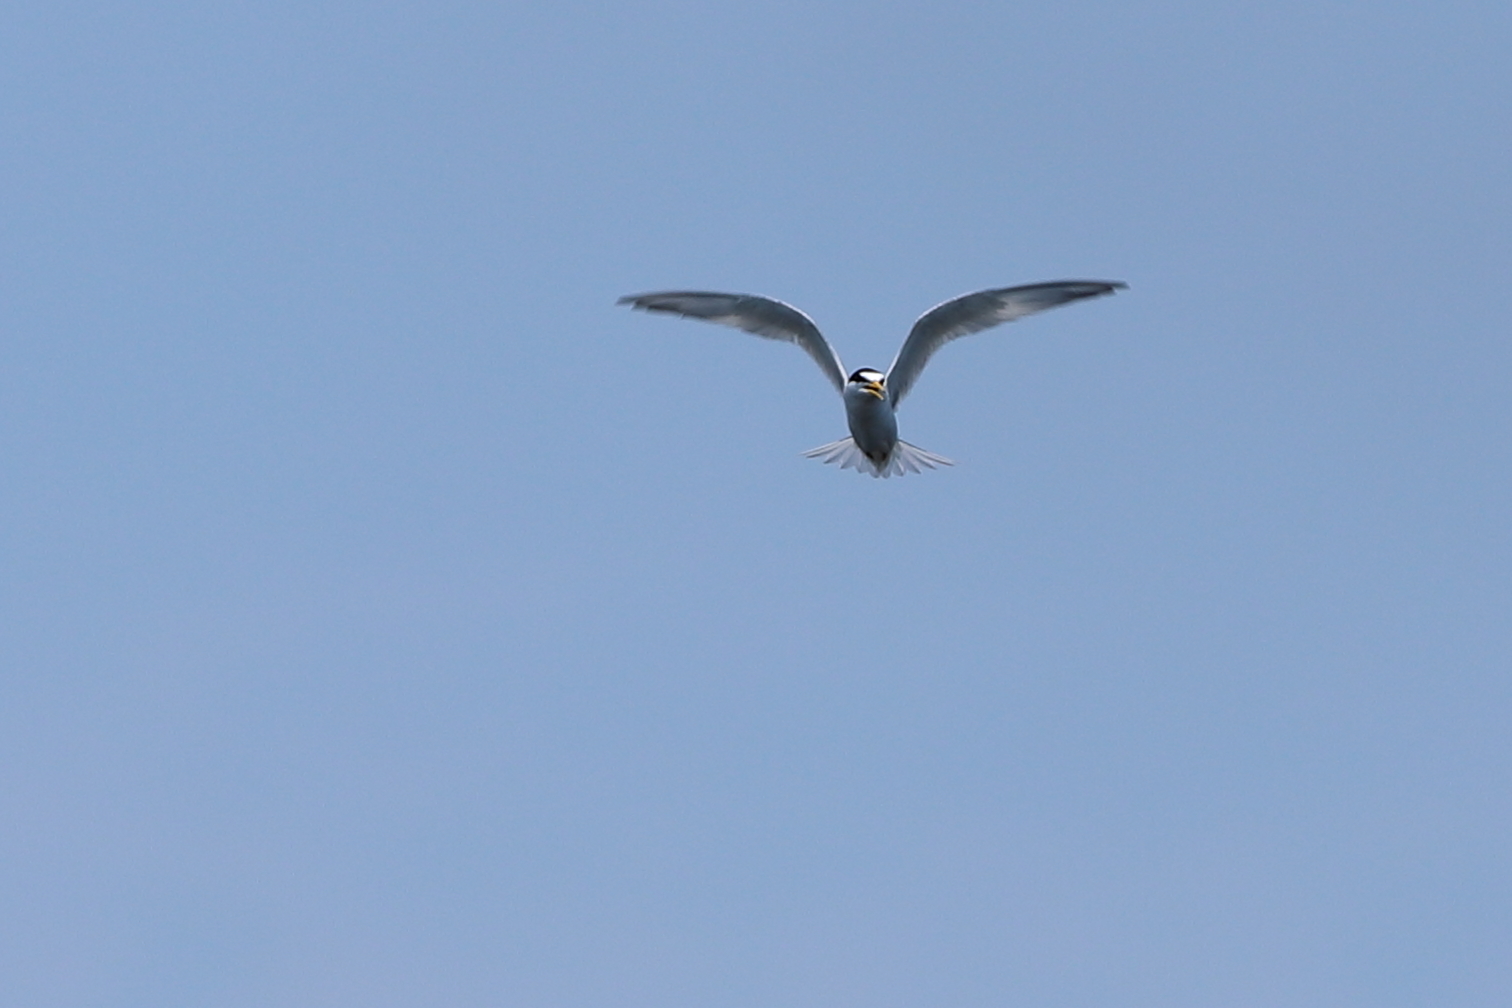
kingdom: Animalia
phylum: Chordata
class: Aves
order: Charadriiformes
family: Laridae
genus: Sternula
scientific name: Sternula antillarum
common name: Least tern
